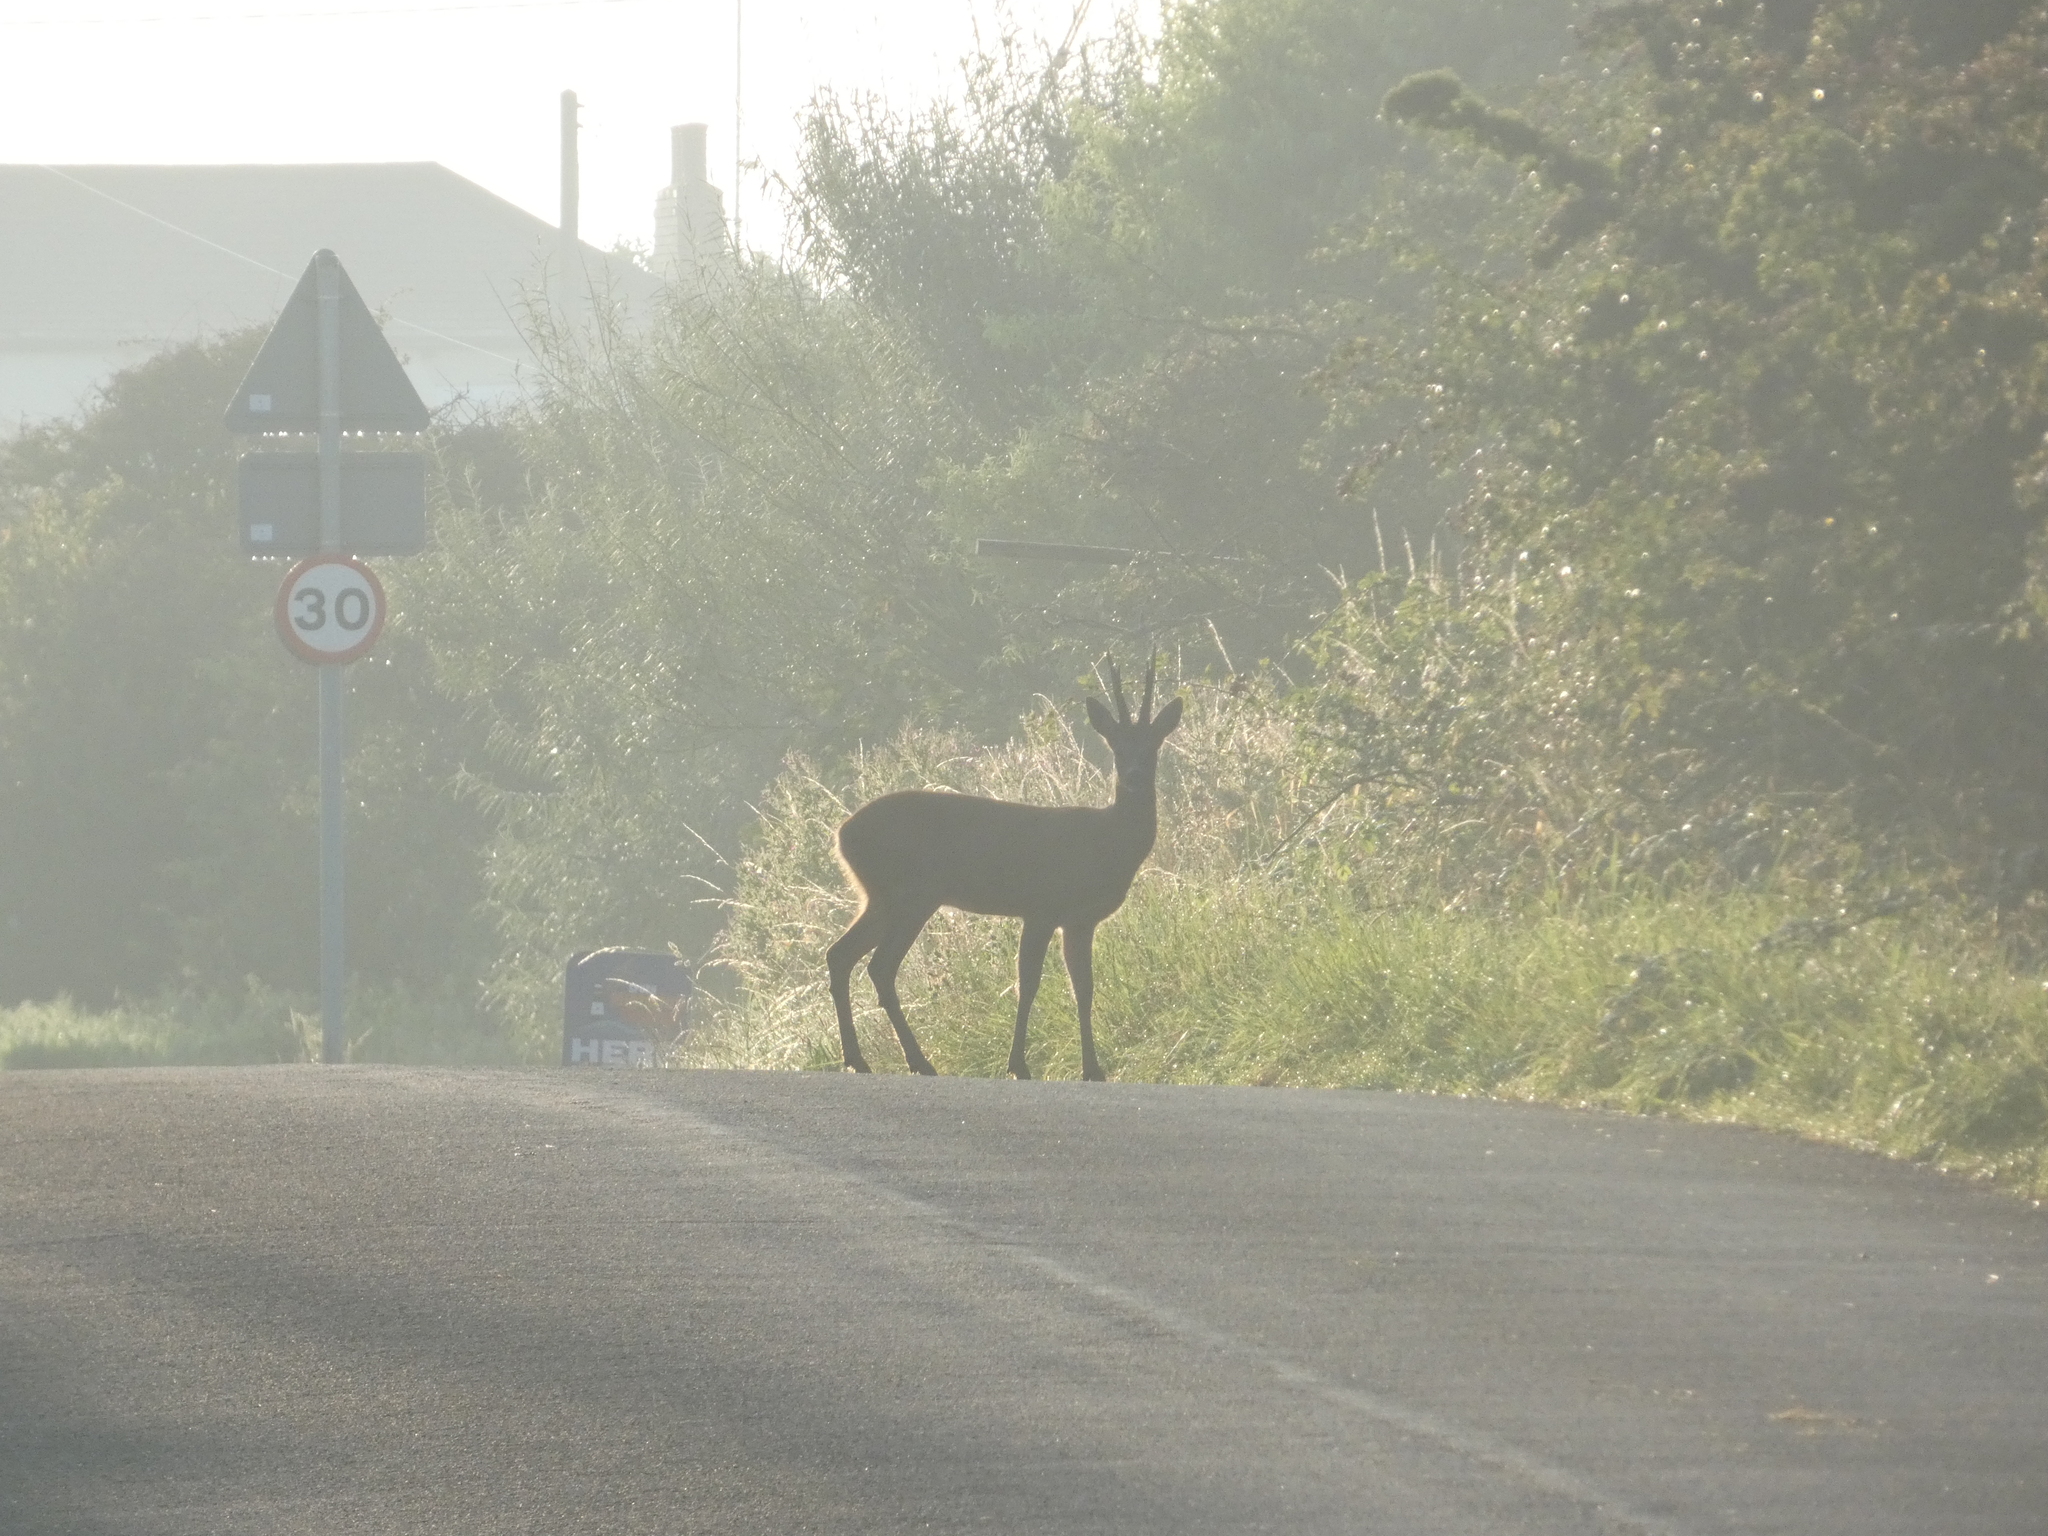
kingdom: Animalia
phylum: Chordata
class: Mammalia
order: Artiodactyla
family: Cervidae
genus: Capreolus
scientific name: Capreolus capreolus
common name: Western roe deer
